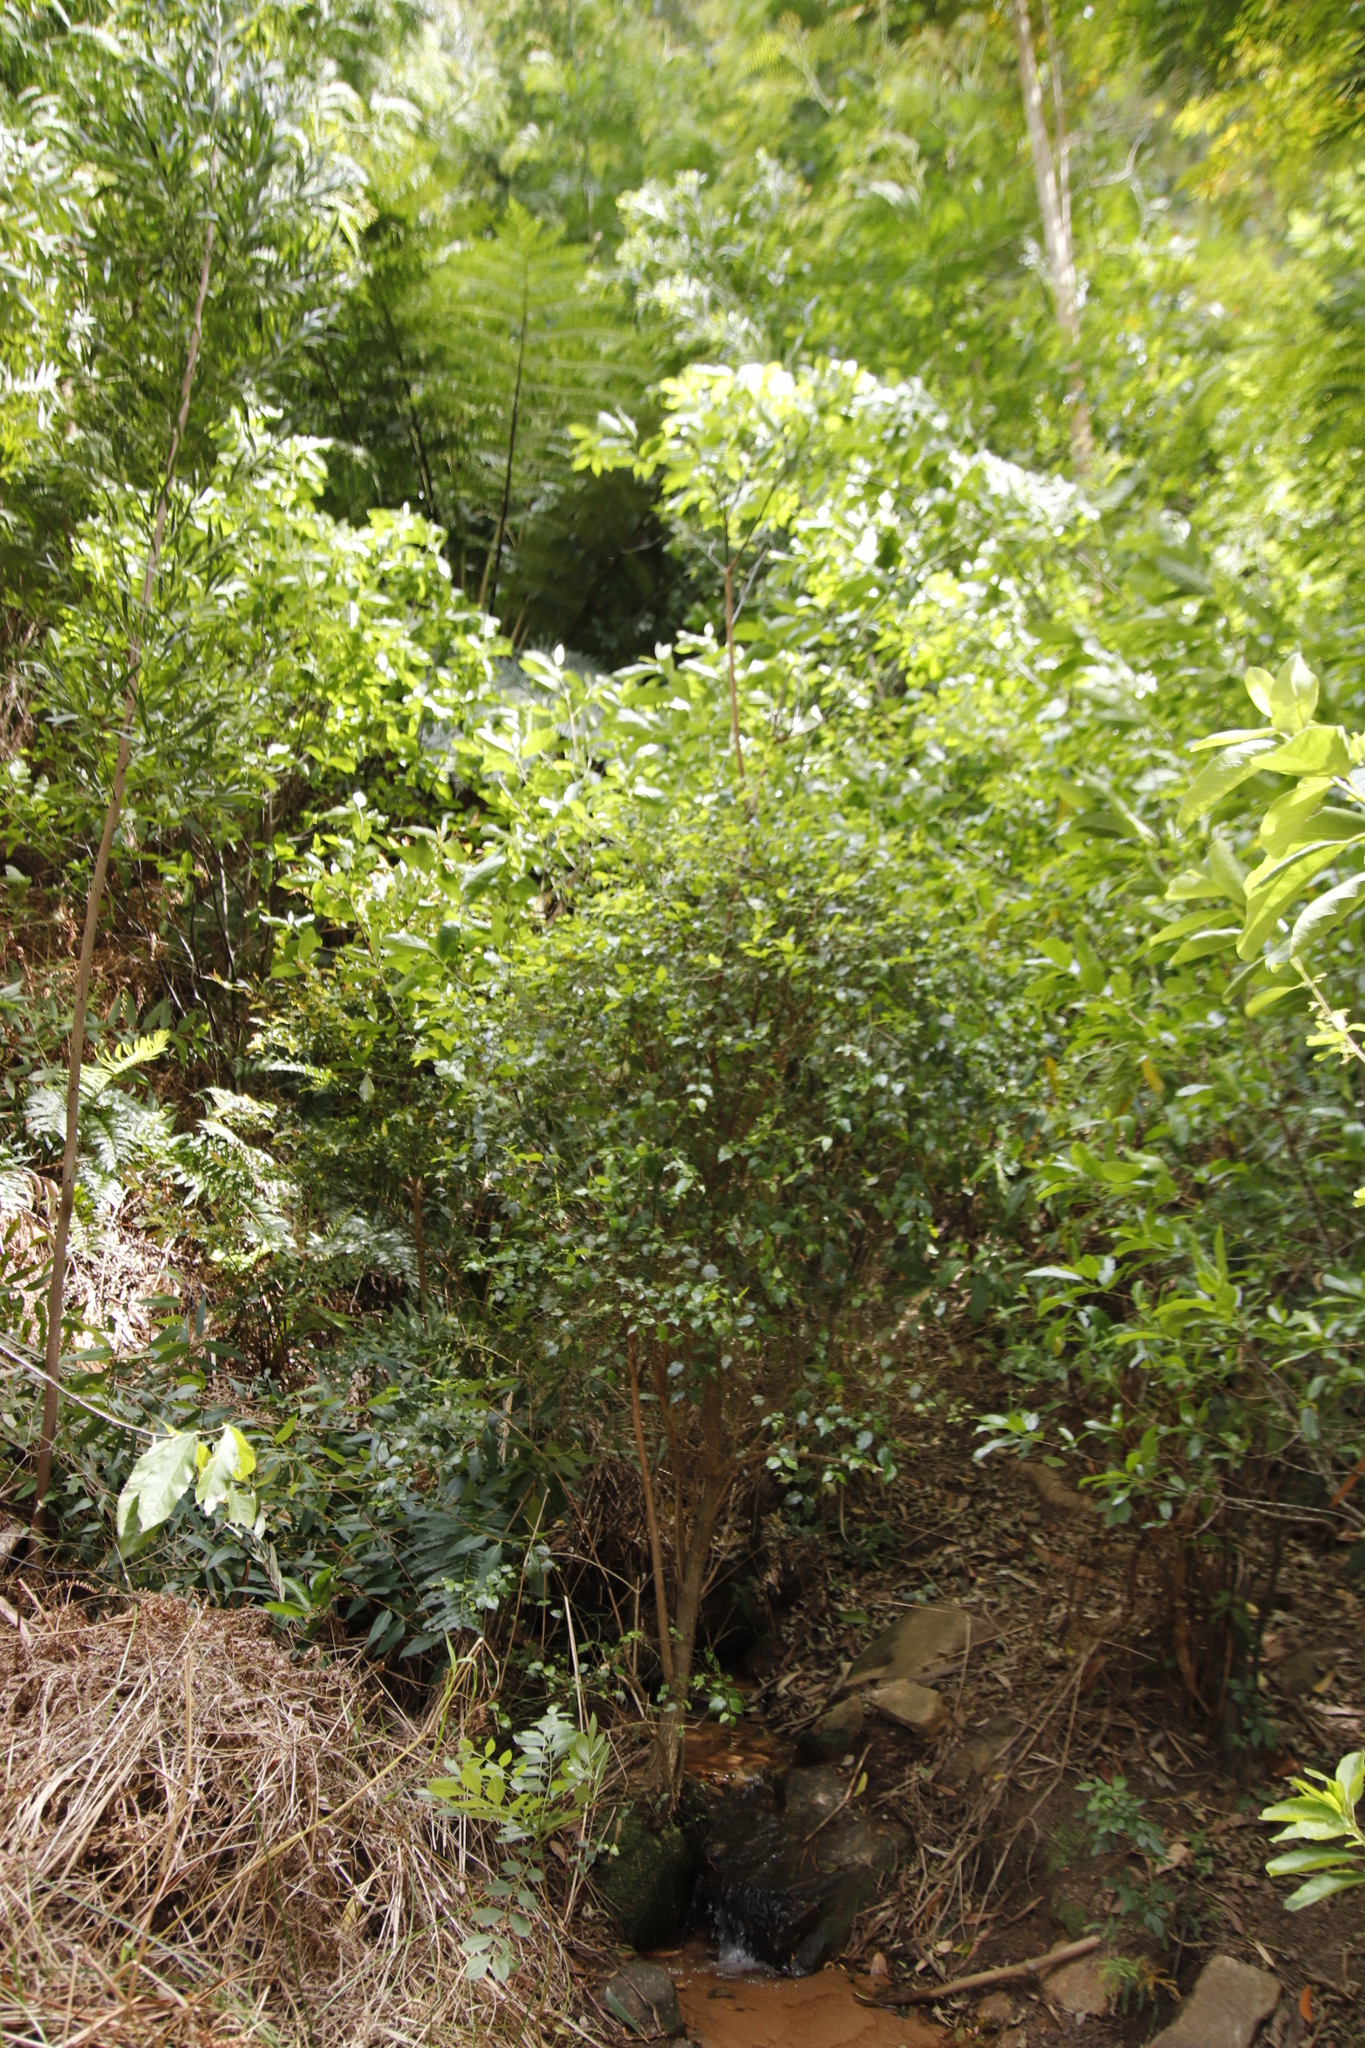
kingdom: Plantae
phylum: Tracheophyta
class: Magnoliopsida
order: Lamiales
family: Stilbaceae
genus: Halleria
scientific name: Halleria lucida
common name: Tree fuschia
